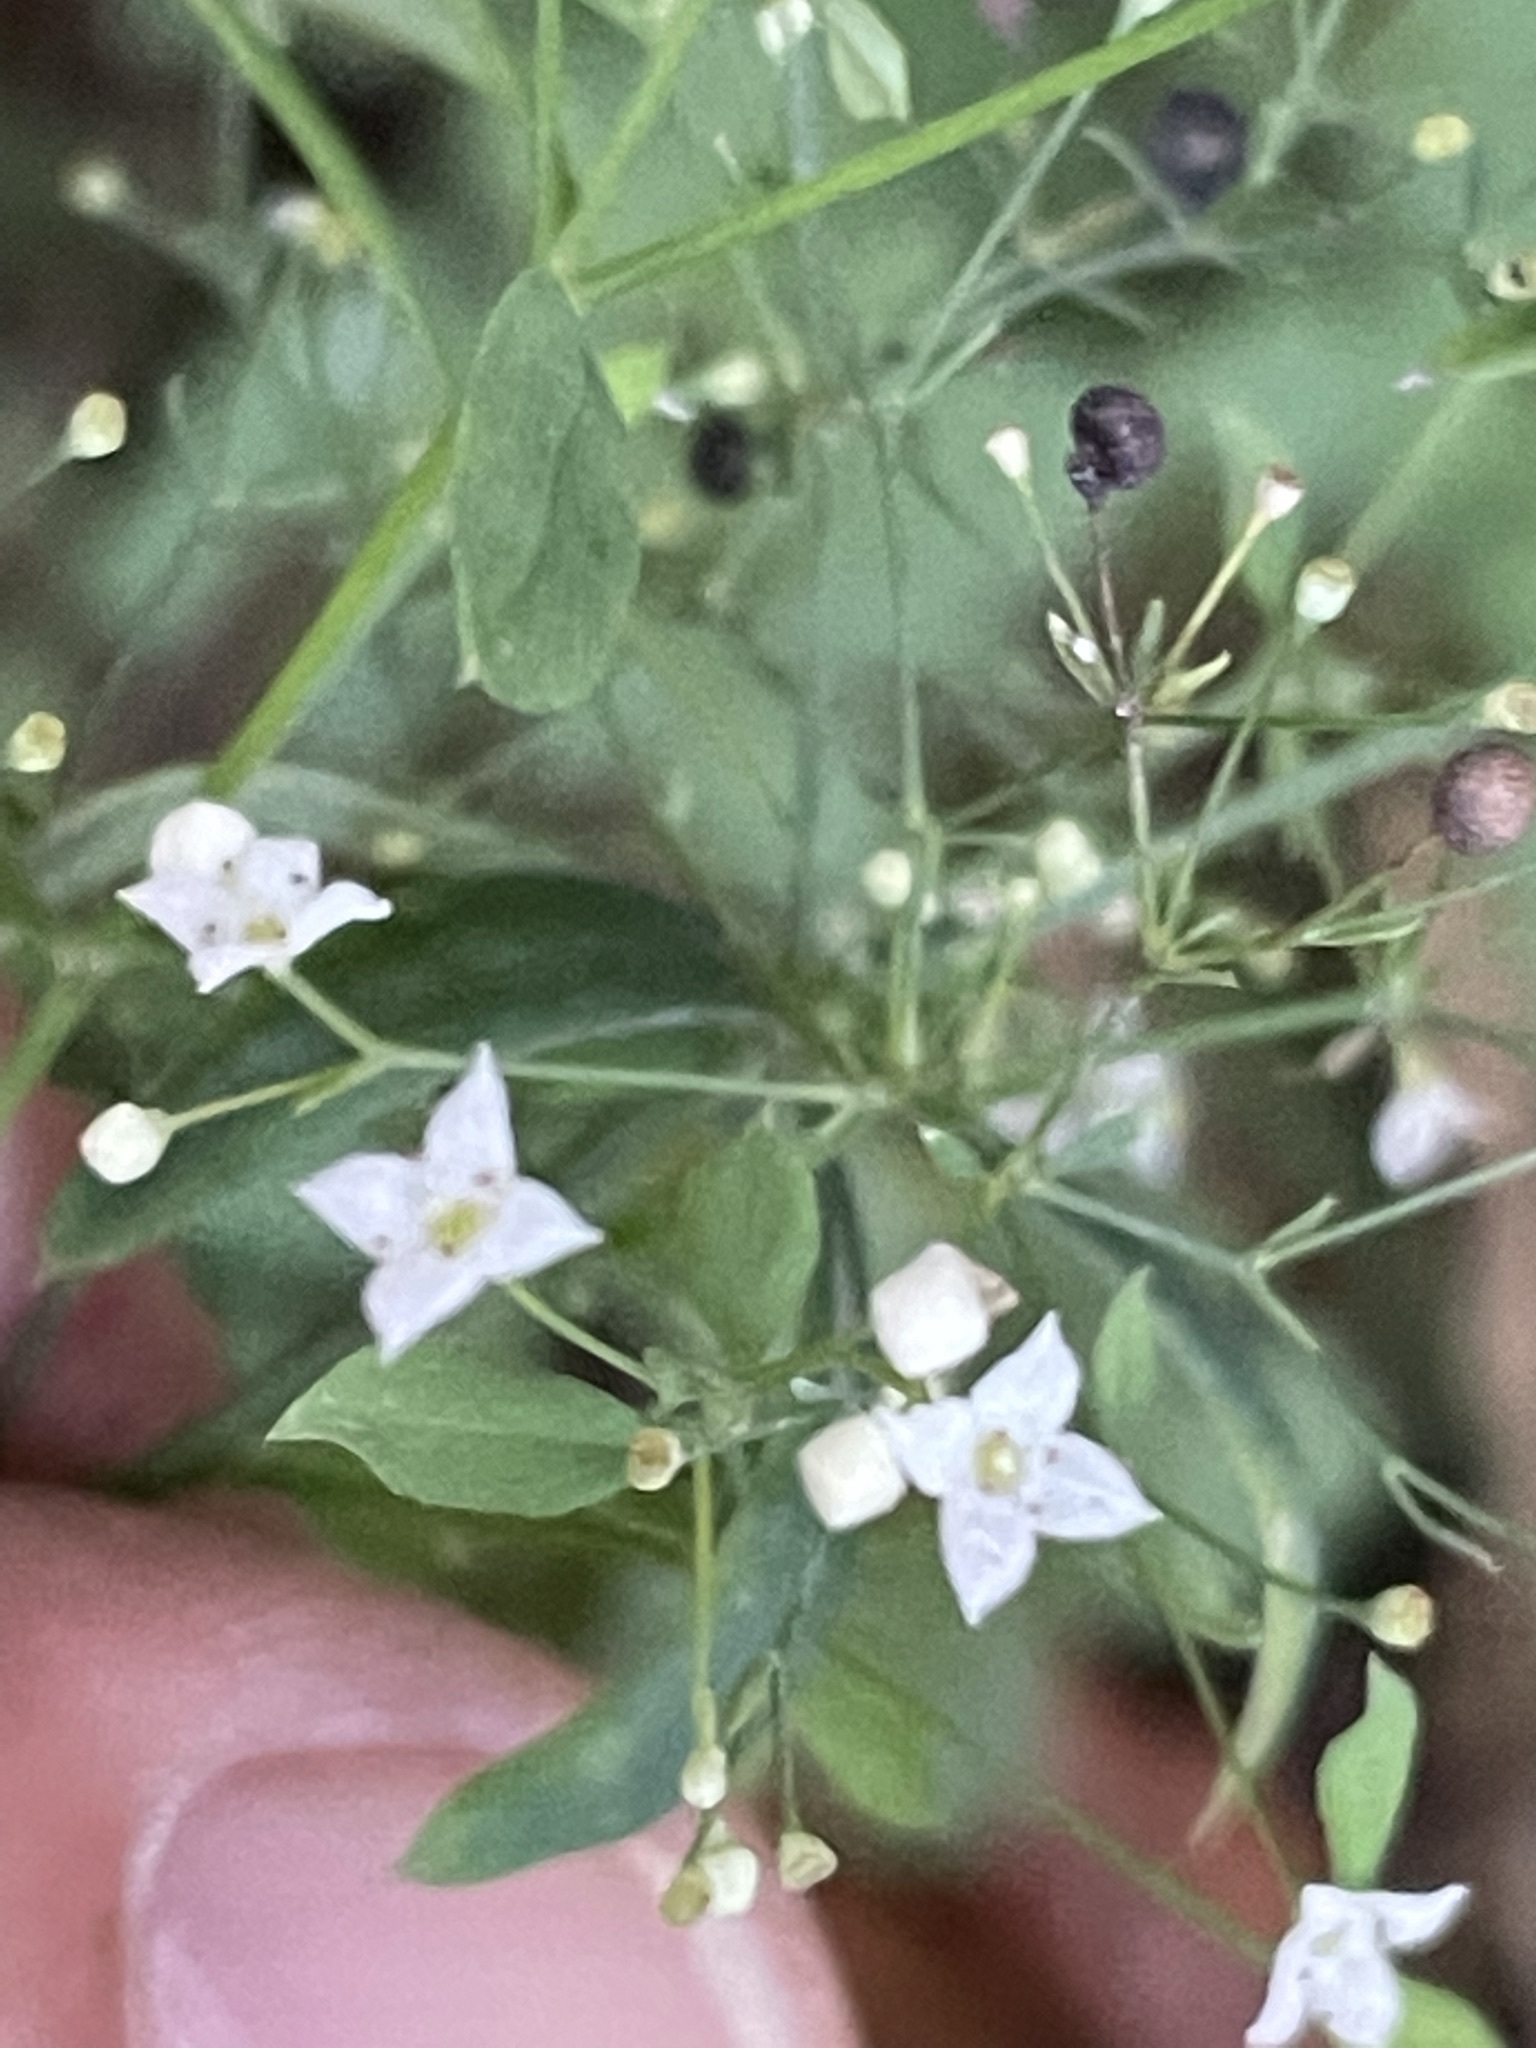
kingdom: Plantae
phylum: Tracheophyta
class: Magnoliopsida
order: Gentianales
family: Rubiaceae
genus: Galium
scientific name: Galium sylvaticum
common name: Wood bedstraw
